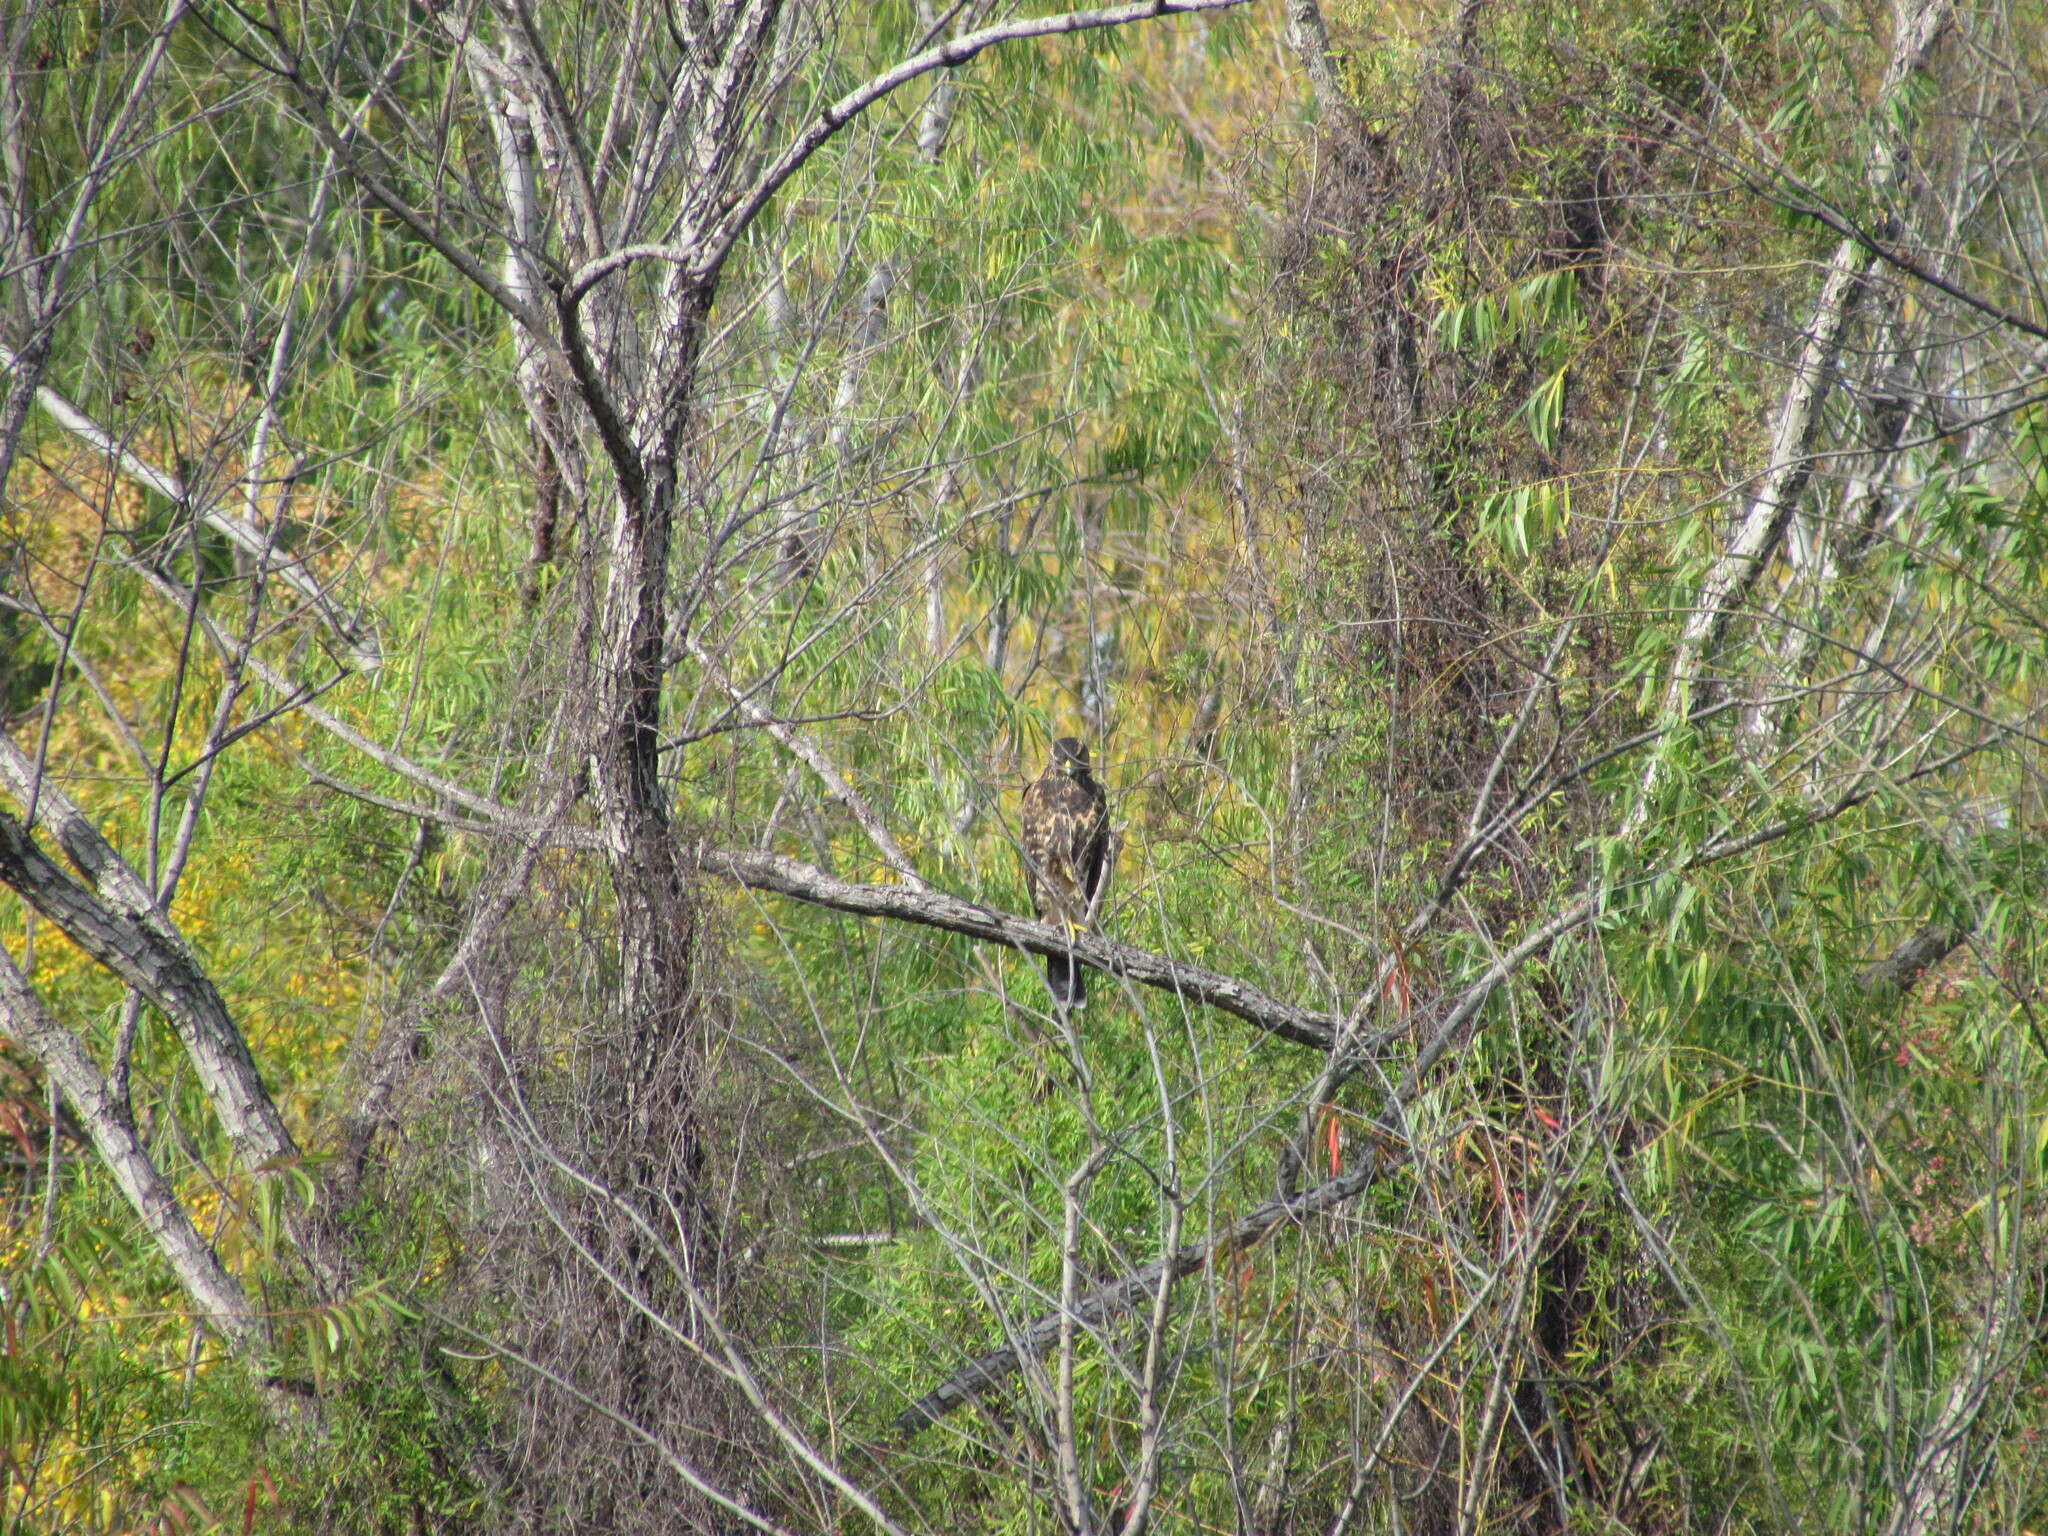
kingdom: Animalia
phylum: Chordata
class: Aves
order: Accipitriformes
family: Accipitridae
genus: Parabuteo
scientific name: Parabuteo unicinctus
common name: Harris's hawk
